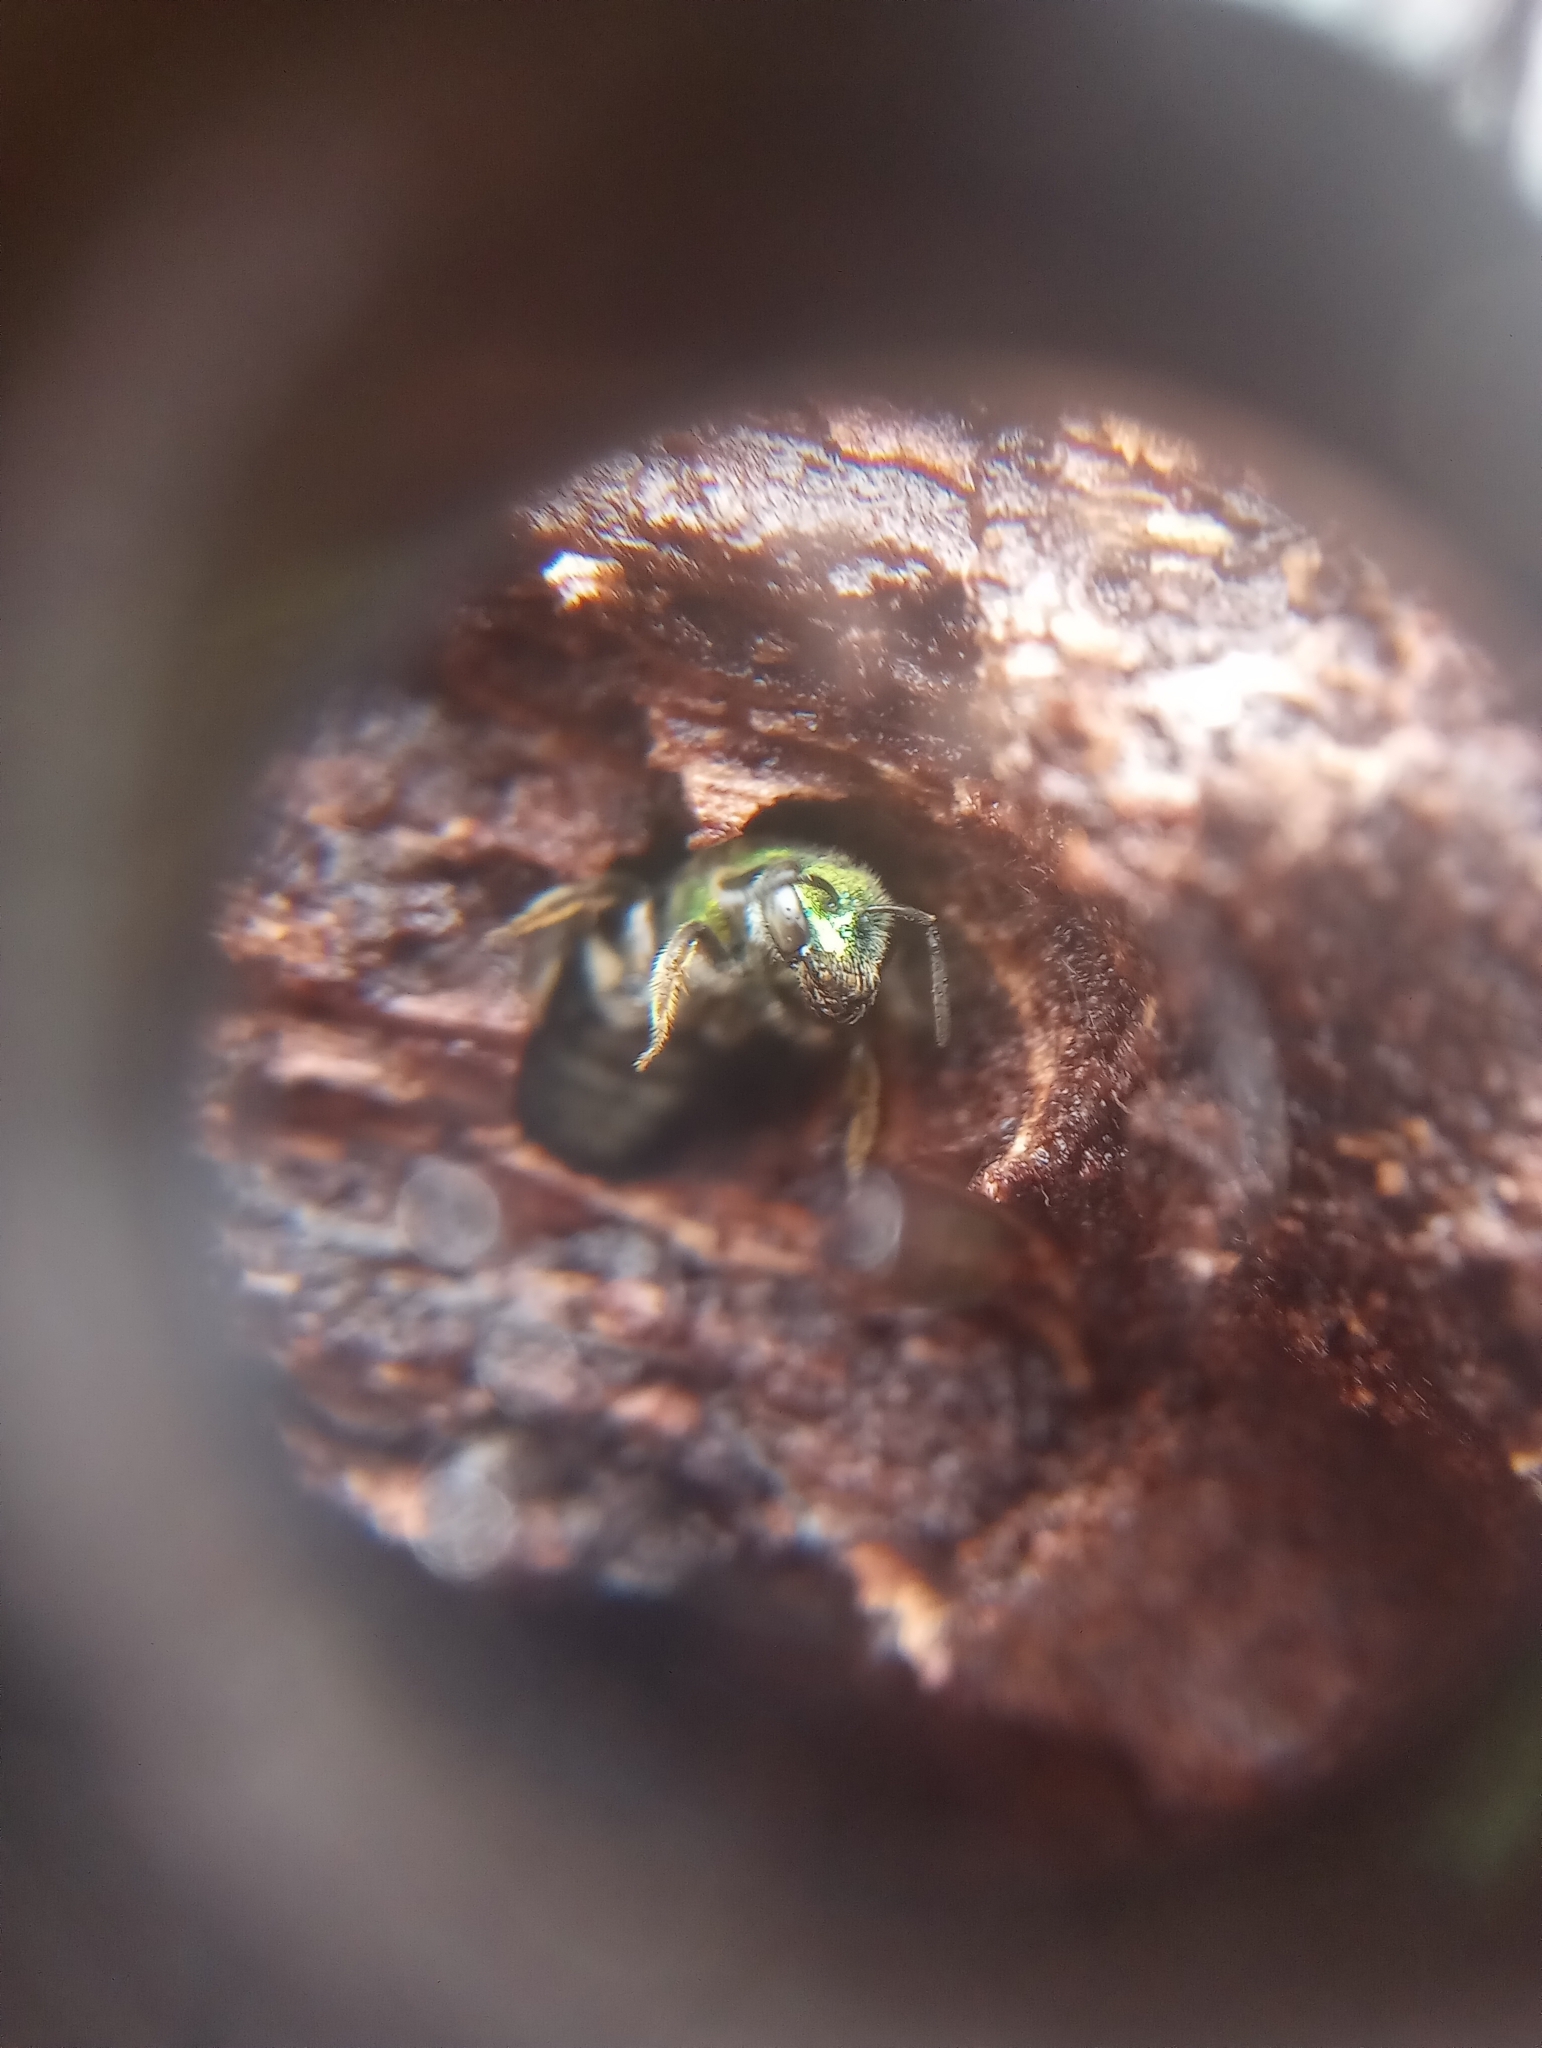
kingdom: Animalia
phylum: Arthropoda
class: Insecta
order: Hymenoptera
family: Halictidae
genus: Augochlora
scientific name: Augochlora pura
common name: Pure green sweat bee
